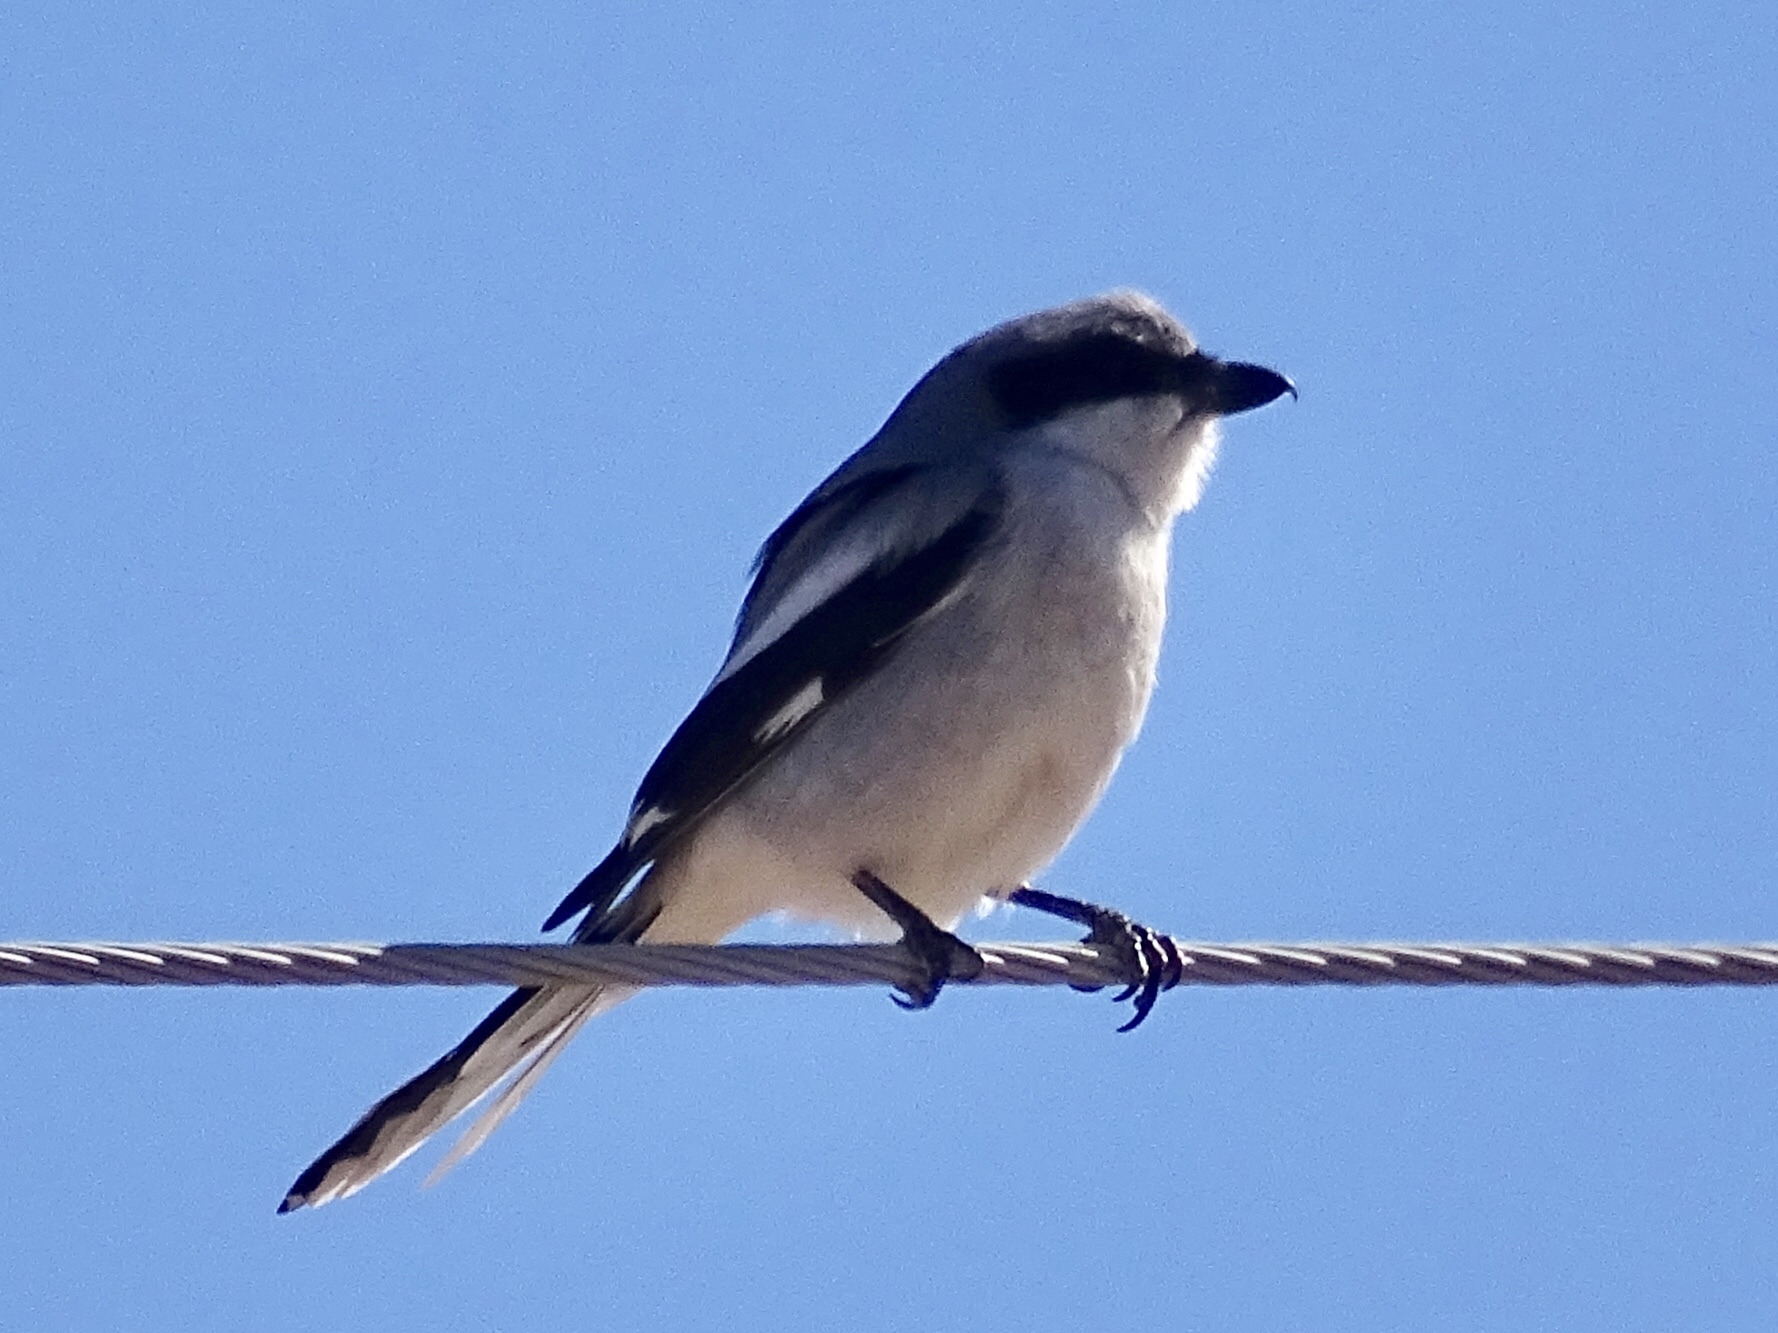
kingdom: Animalia
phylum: Chordata
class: Aves
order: Passeriformes
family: Laniidae
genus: Lanius
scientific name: Lanius ludovicianus
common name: Loggerhead shrike
